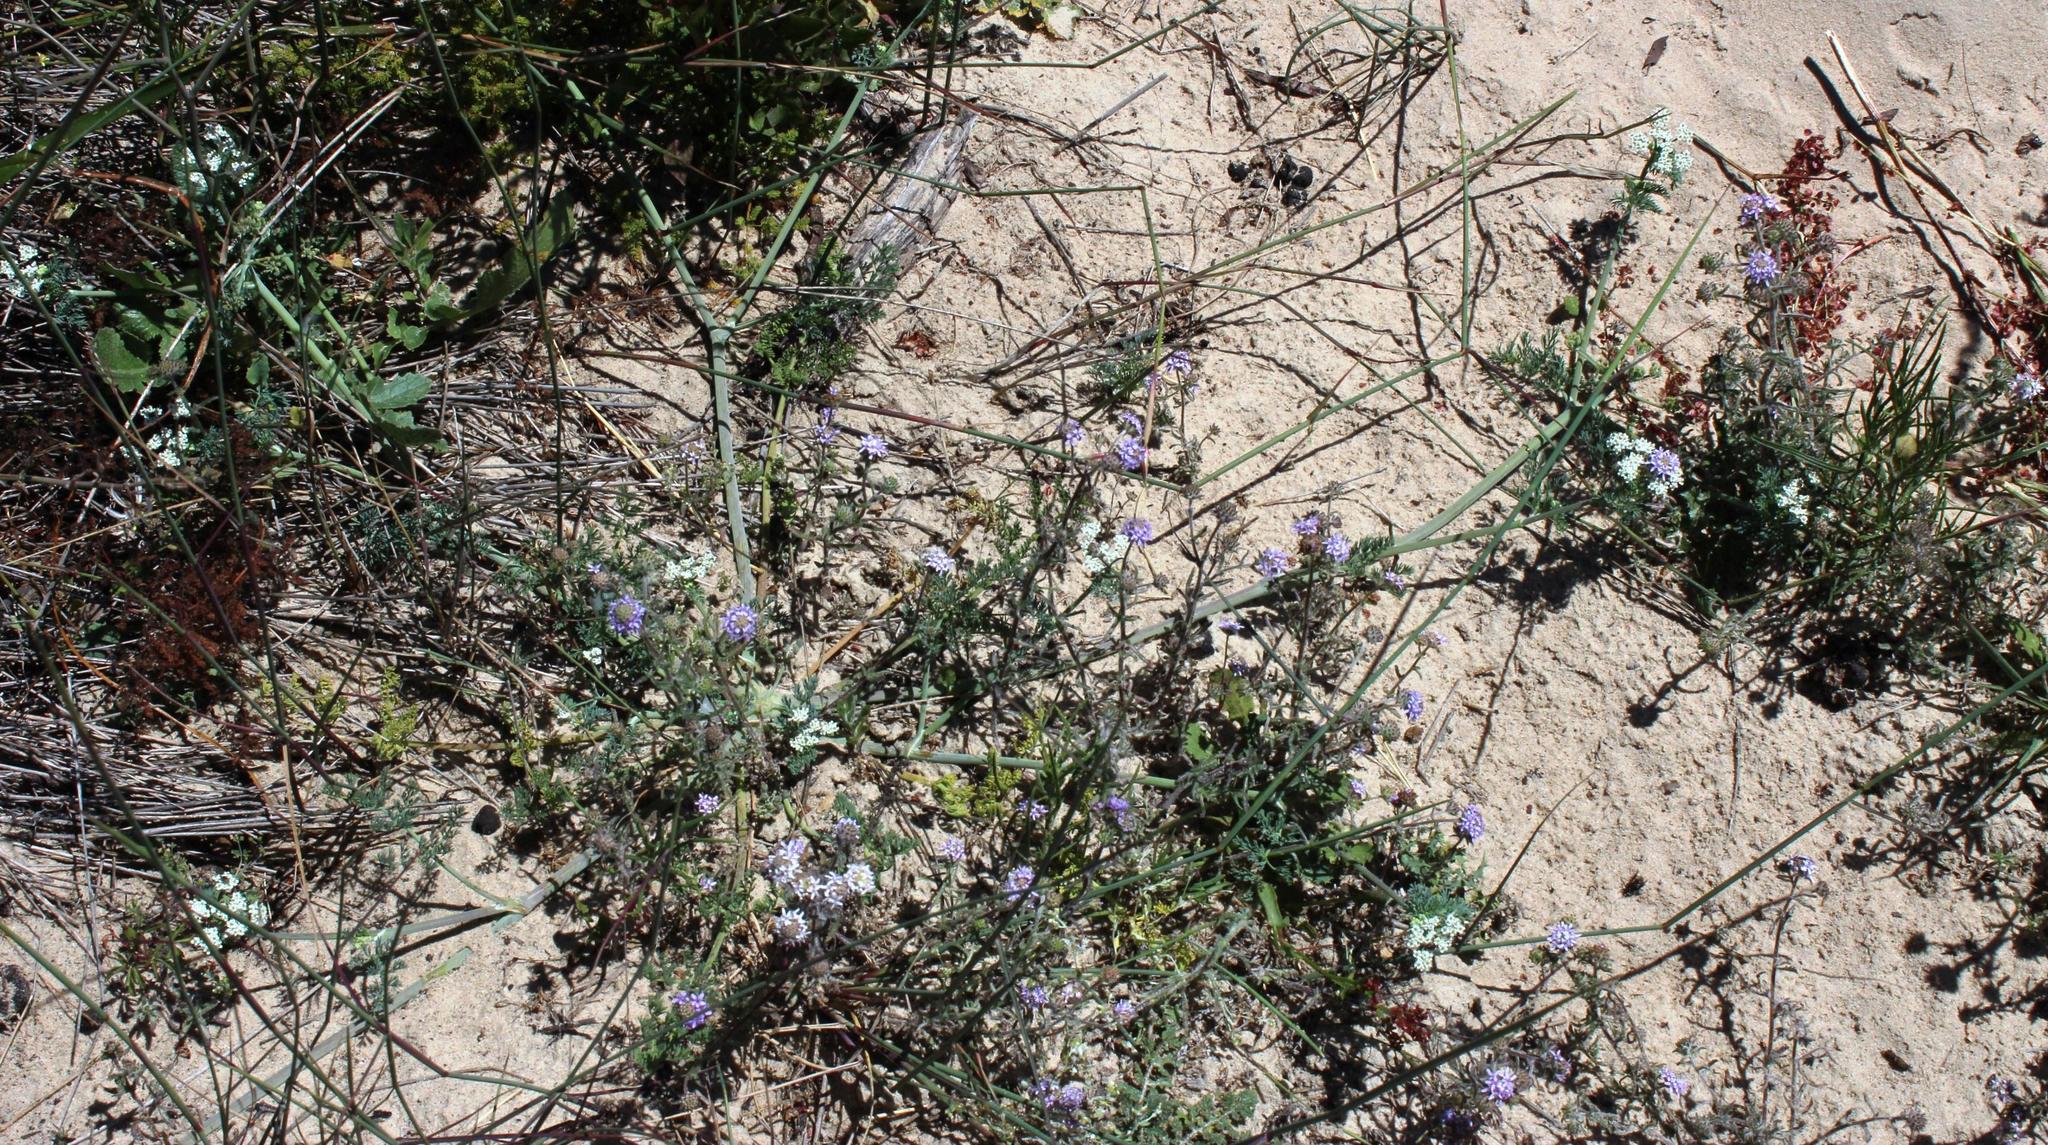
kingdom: Plantae
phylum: Tracheophyta
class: Magnoliopsida
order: Apiales
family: Apiaceae
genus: Capnophyllum
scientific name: Capnophyllum africanum
